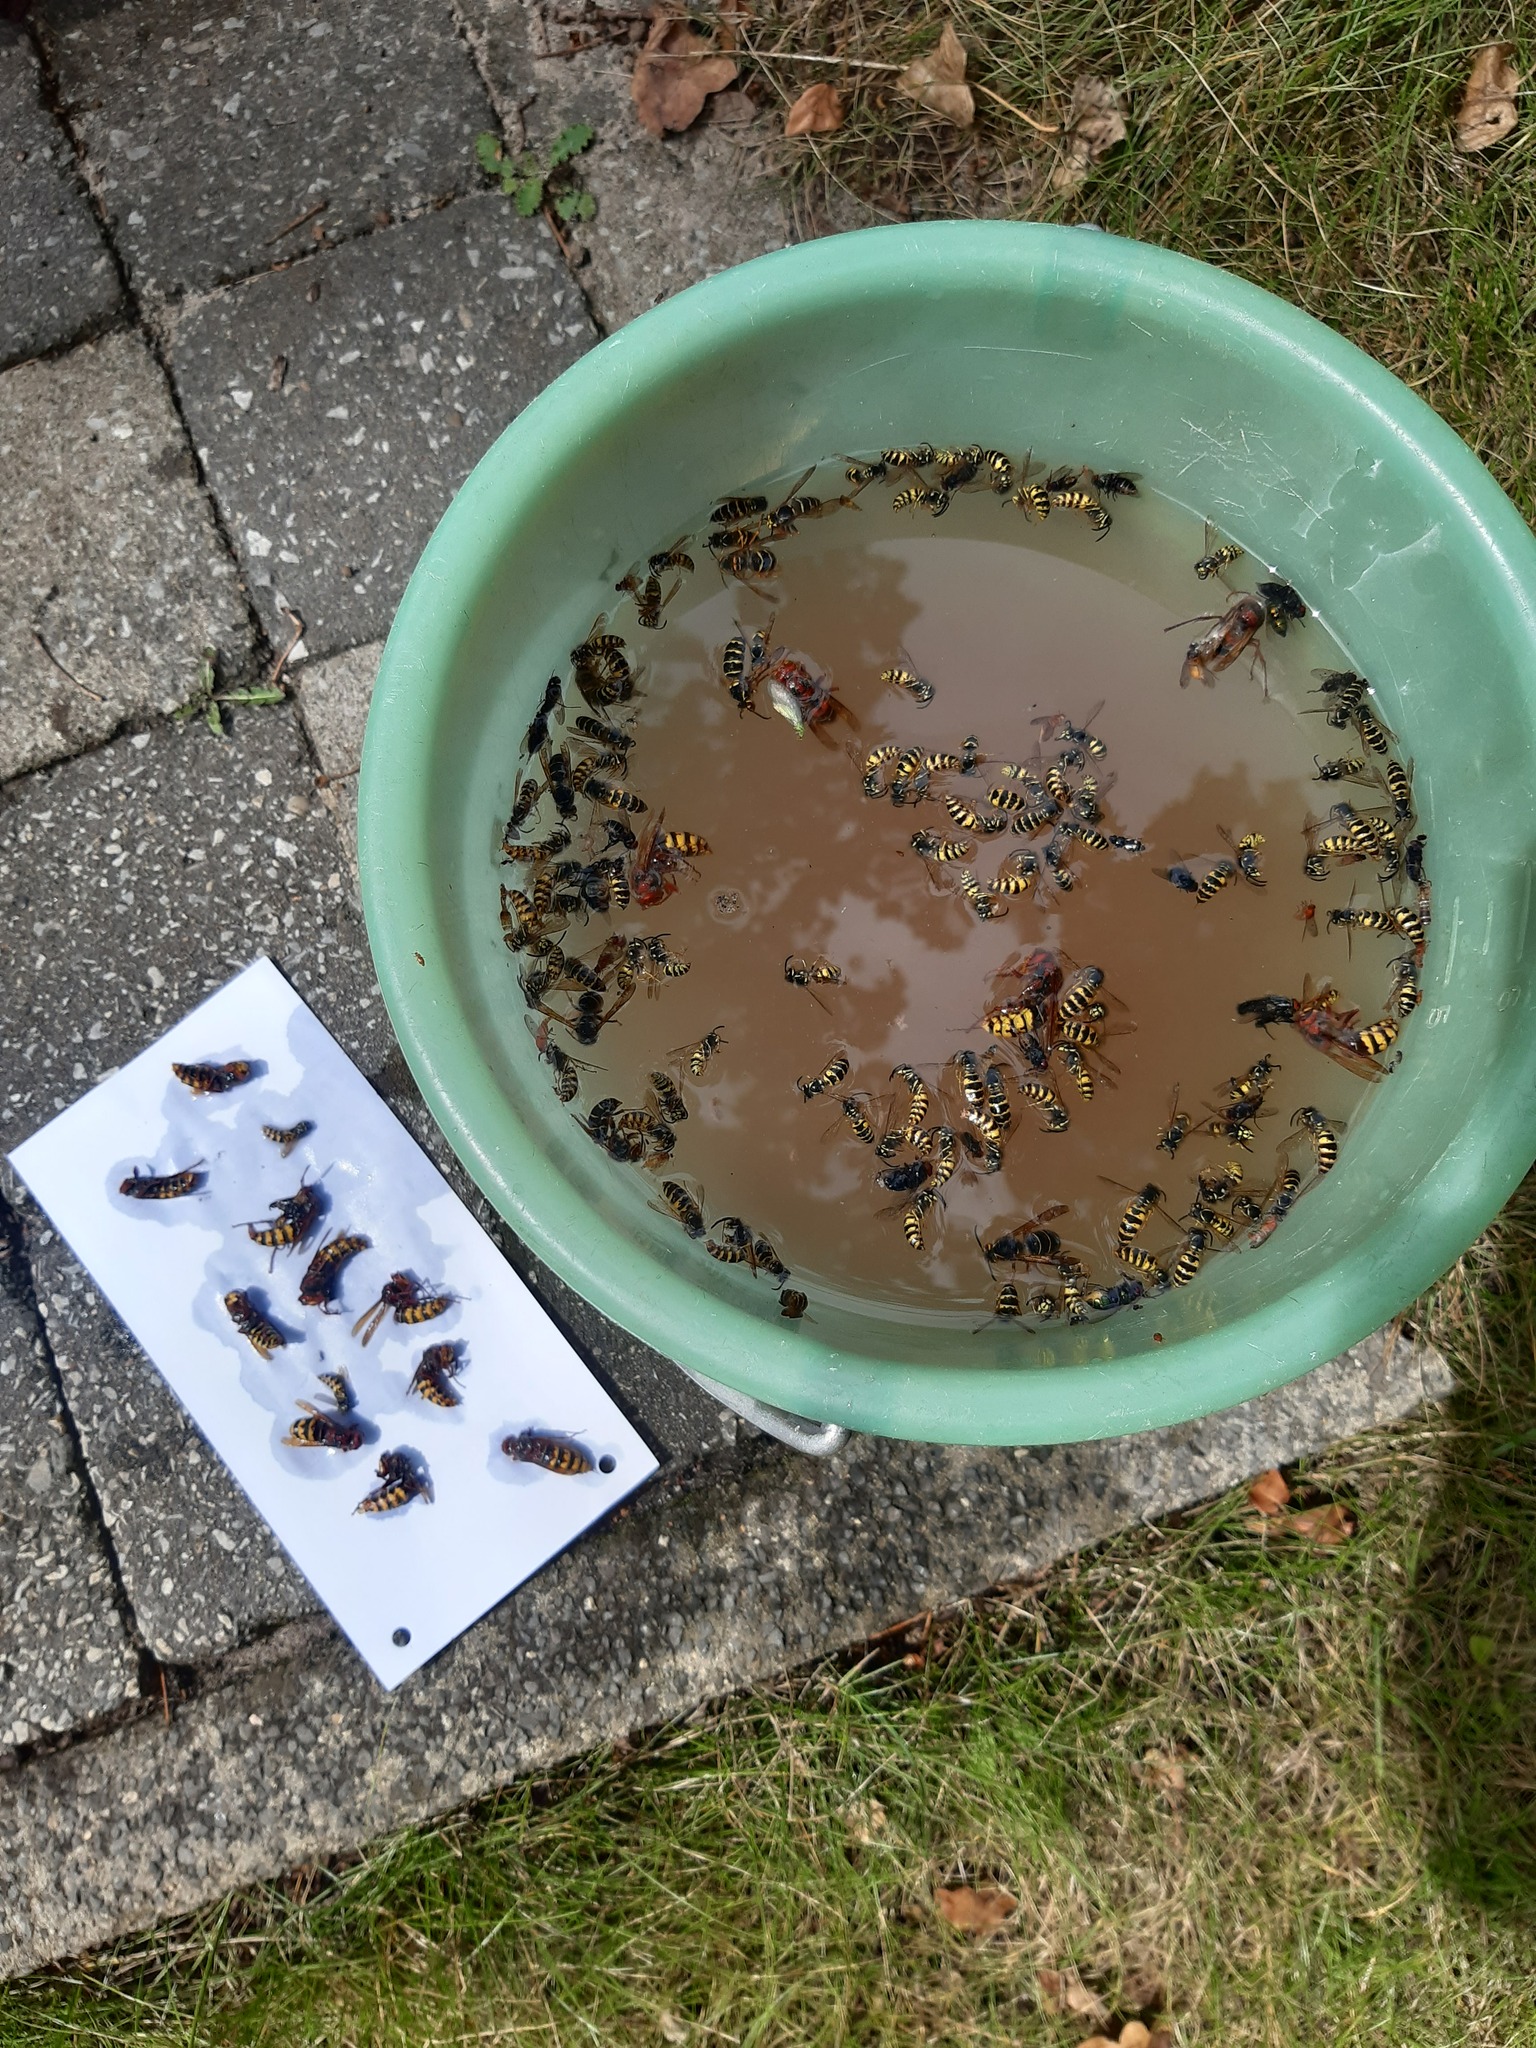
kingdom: Animalia
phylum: Arthropoda
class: Insecta
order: Hymenoptera
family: Vespidae
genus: Vespa
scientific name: Vespa crabro
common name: Hornet
